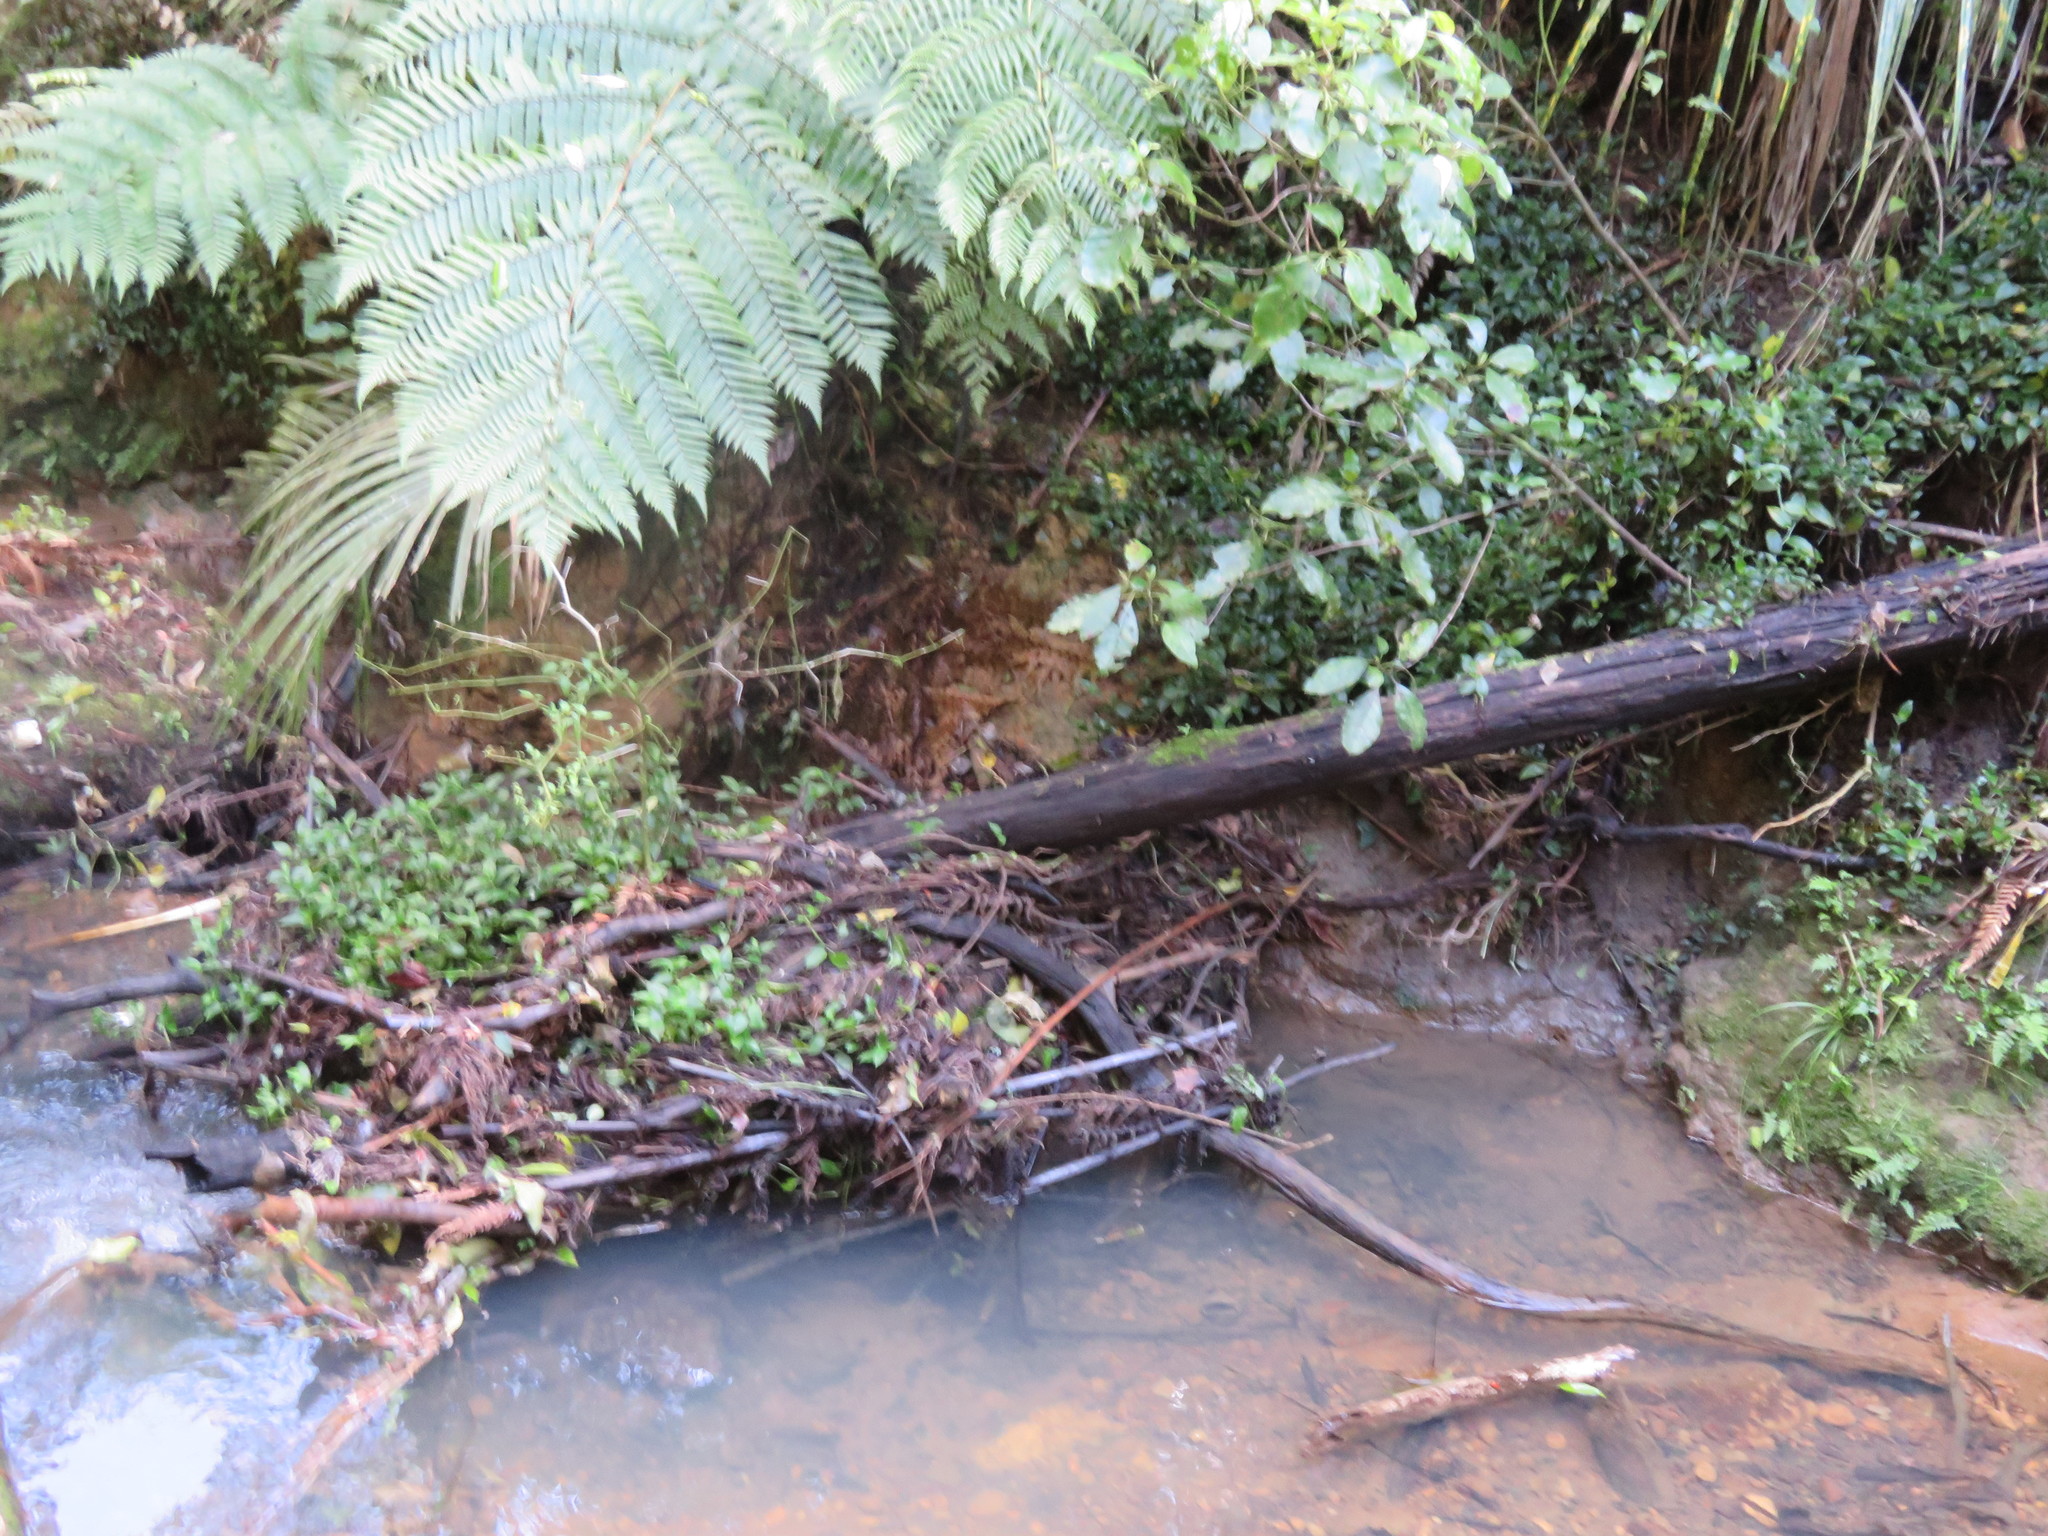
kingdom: Plantae
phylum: Tracheophyta
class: Liliopsida
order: Commelinales
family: Commelinaceae
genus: Tradescantia
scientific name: Tradescantia fluminensis
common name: Wandering-jew
